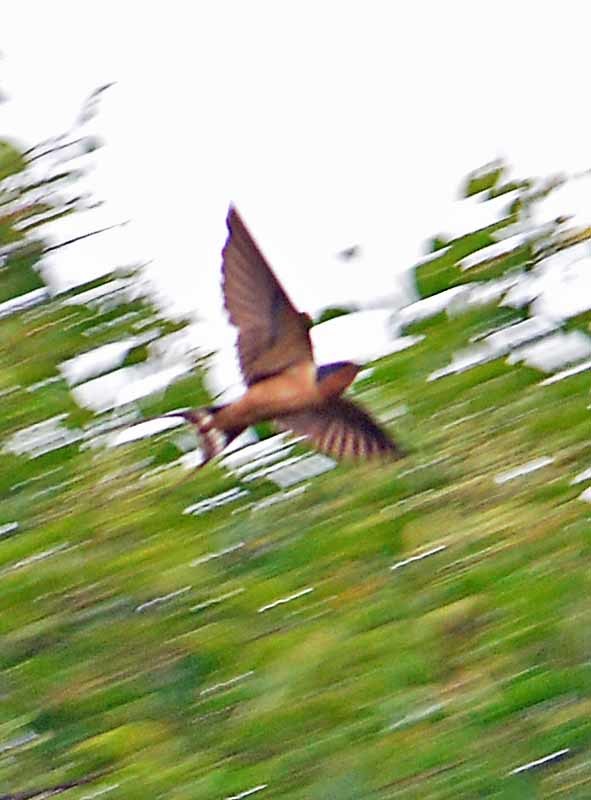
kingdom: Animalia
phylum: Chordata
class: Aves
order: Passeriformes
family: Hirundinidae
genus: Hirundo
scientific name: Hirundo rustica
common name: Barn swallow
